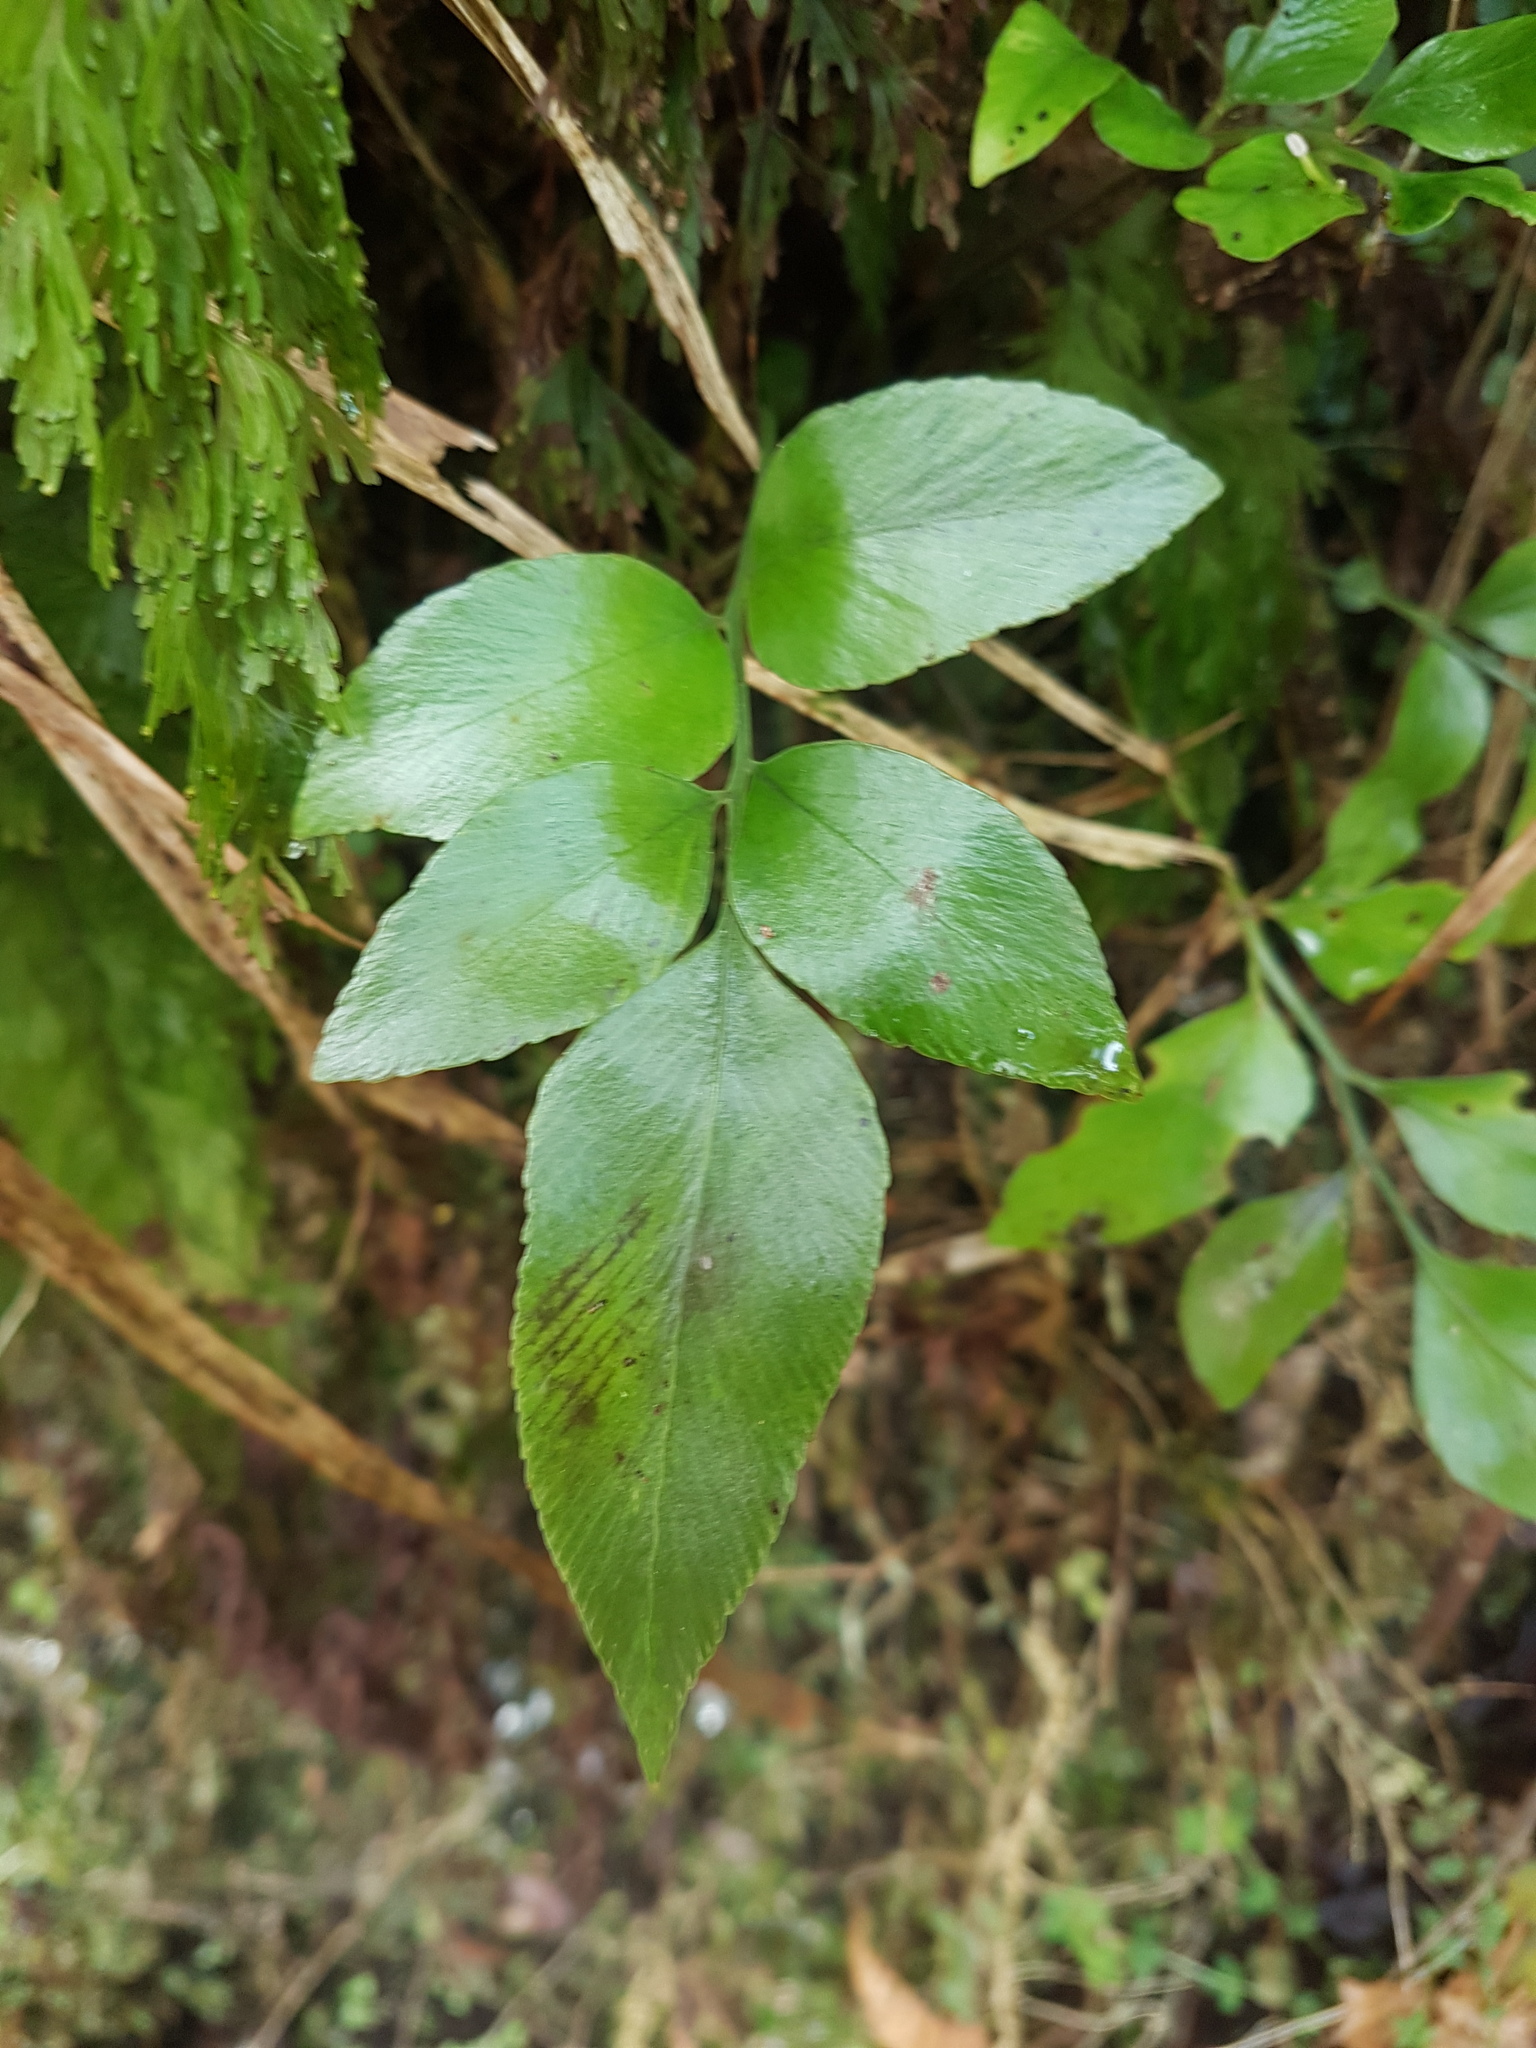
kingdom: Plantae
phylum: Tracheophyta
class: Polypodiopsida
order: Polypodiales
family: Aspleniaceae
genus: Asplenium
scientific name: Asplenium oblongifolium
